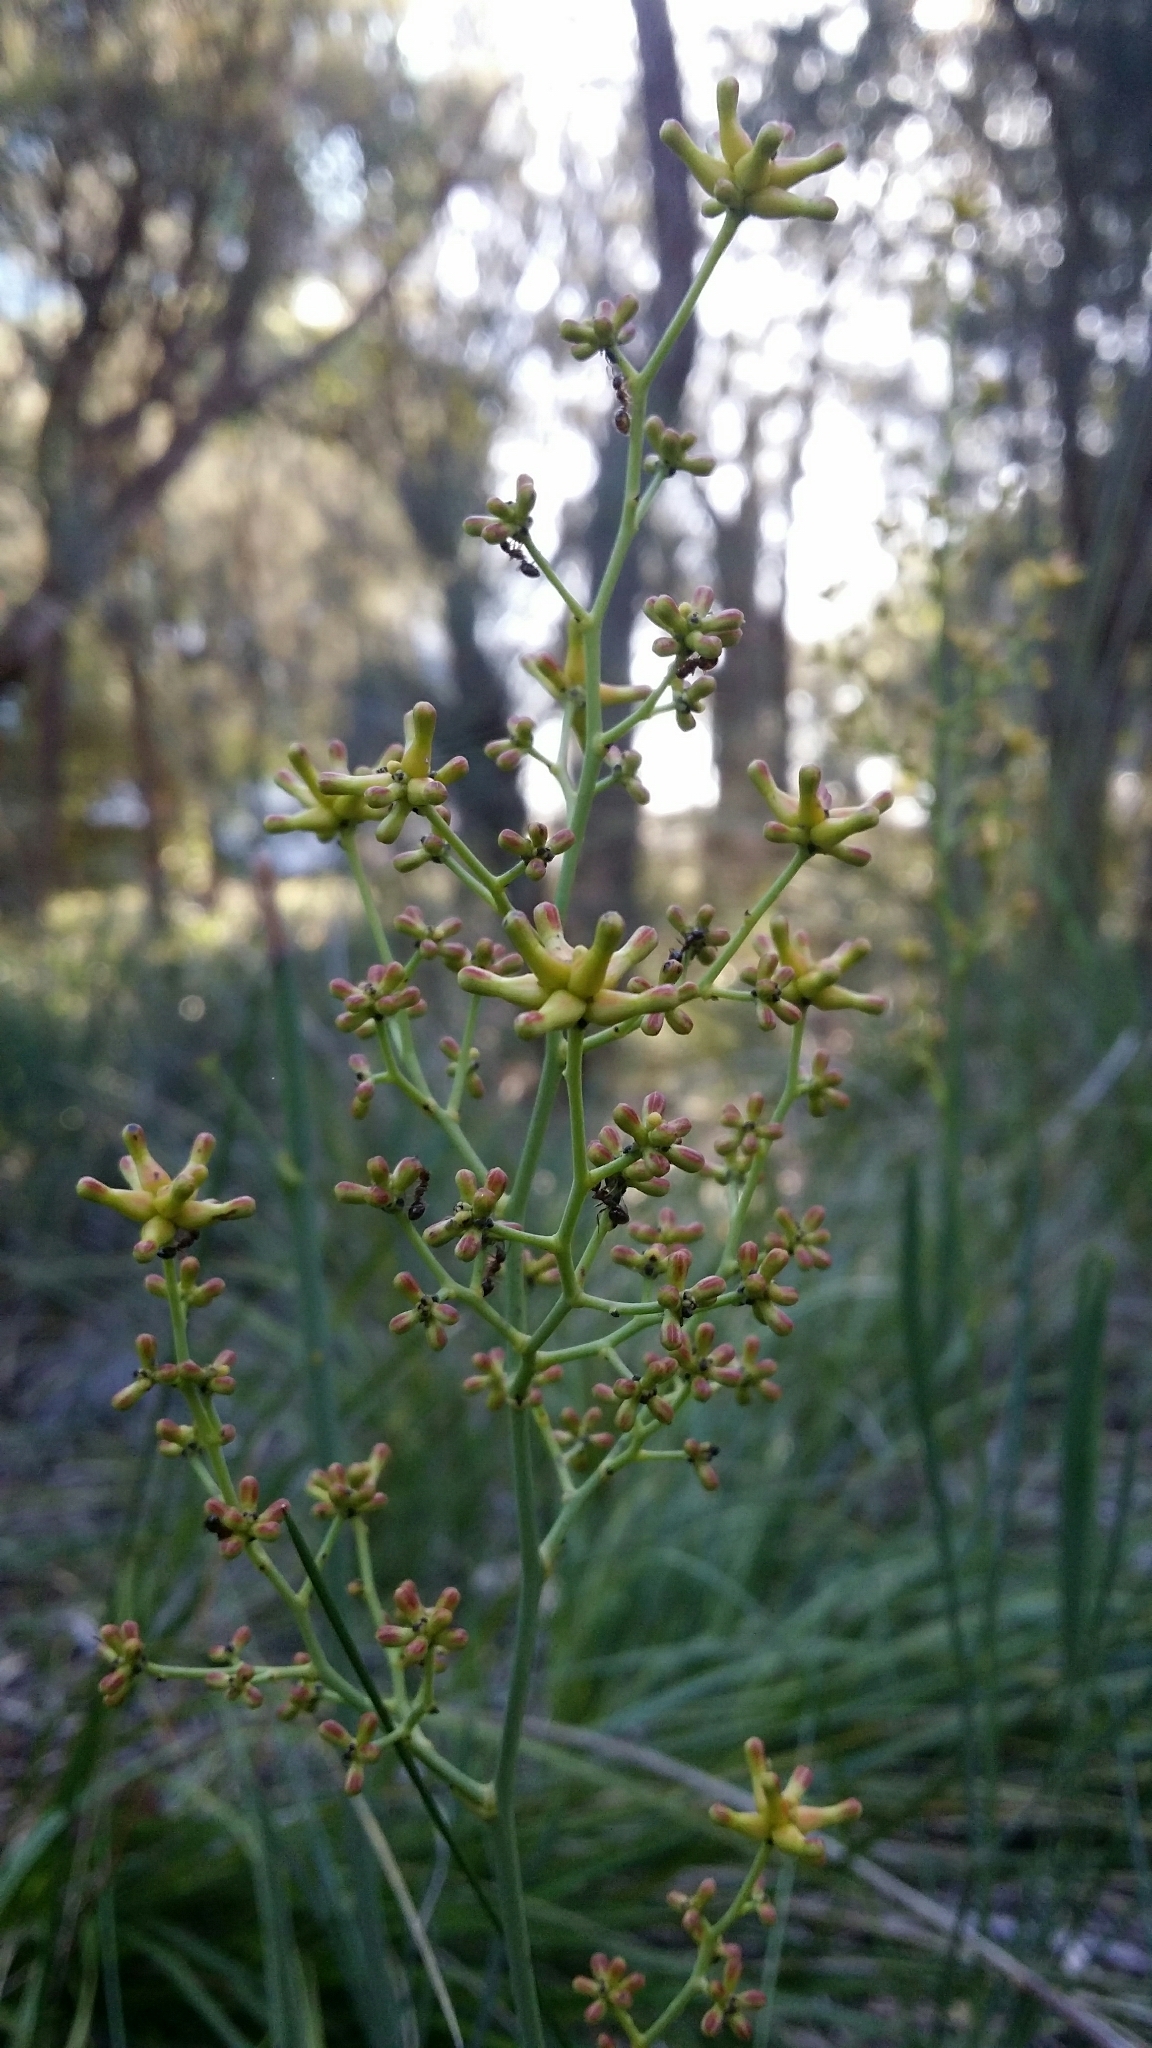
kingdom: Plantae
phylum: Tracheophyta
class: Magnoliopsida
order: Proteales
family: Proteaceae
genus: Stirlingia
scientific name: Stirlingia latifolia
